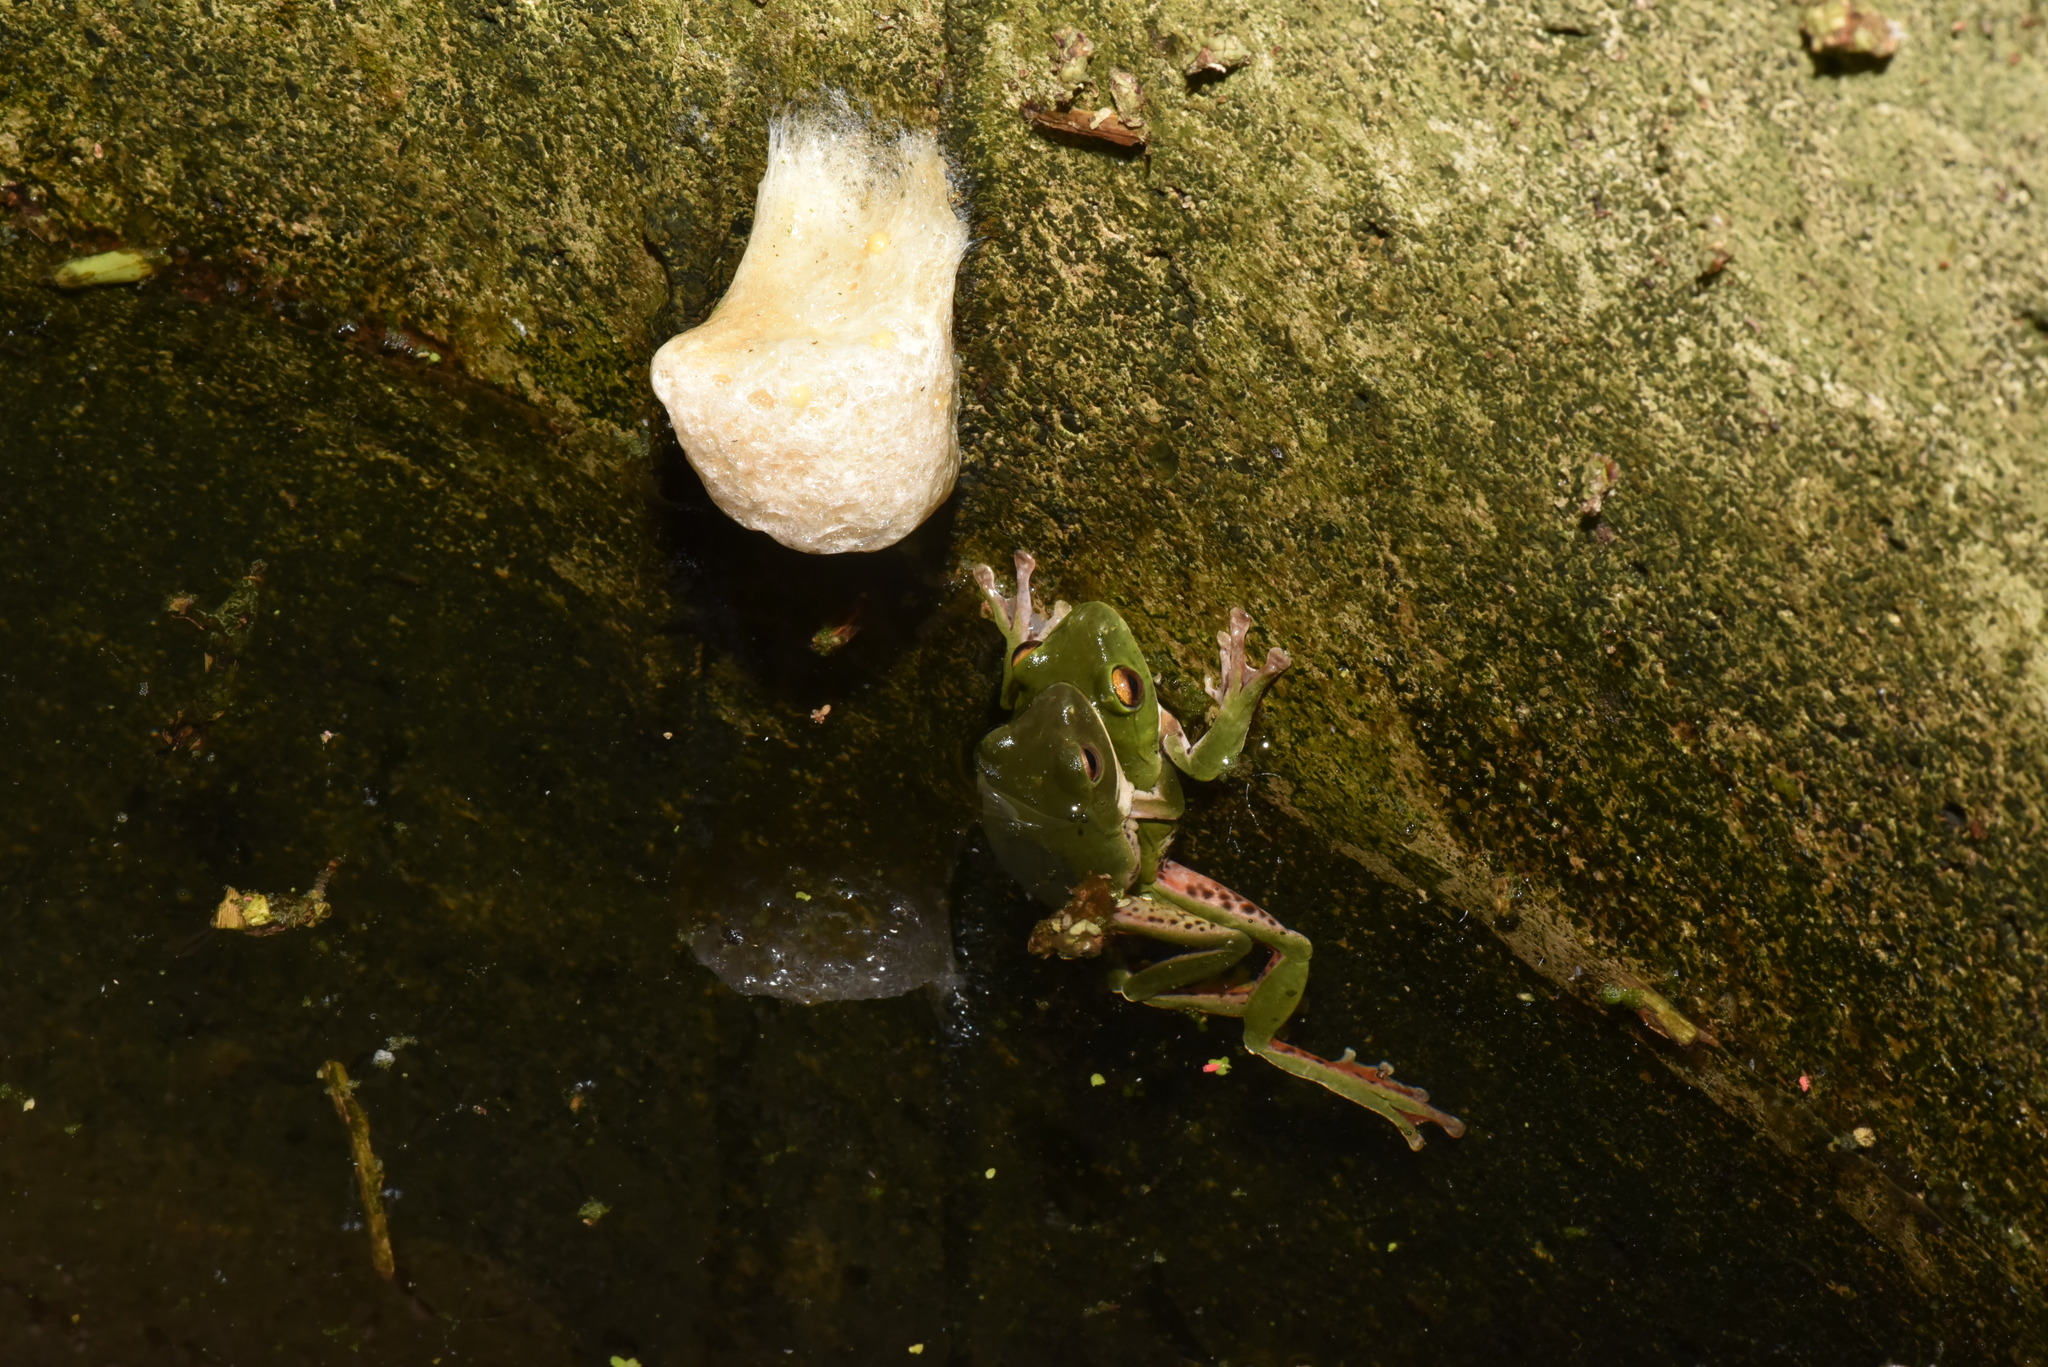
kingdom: Animalia
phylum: Chordata
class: Amphibia
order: Anura
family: Rhacophoridae
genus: Zhangixalus
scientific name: Zhangixalus moltrechti
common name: Moltrecht's treefrog
